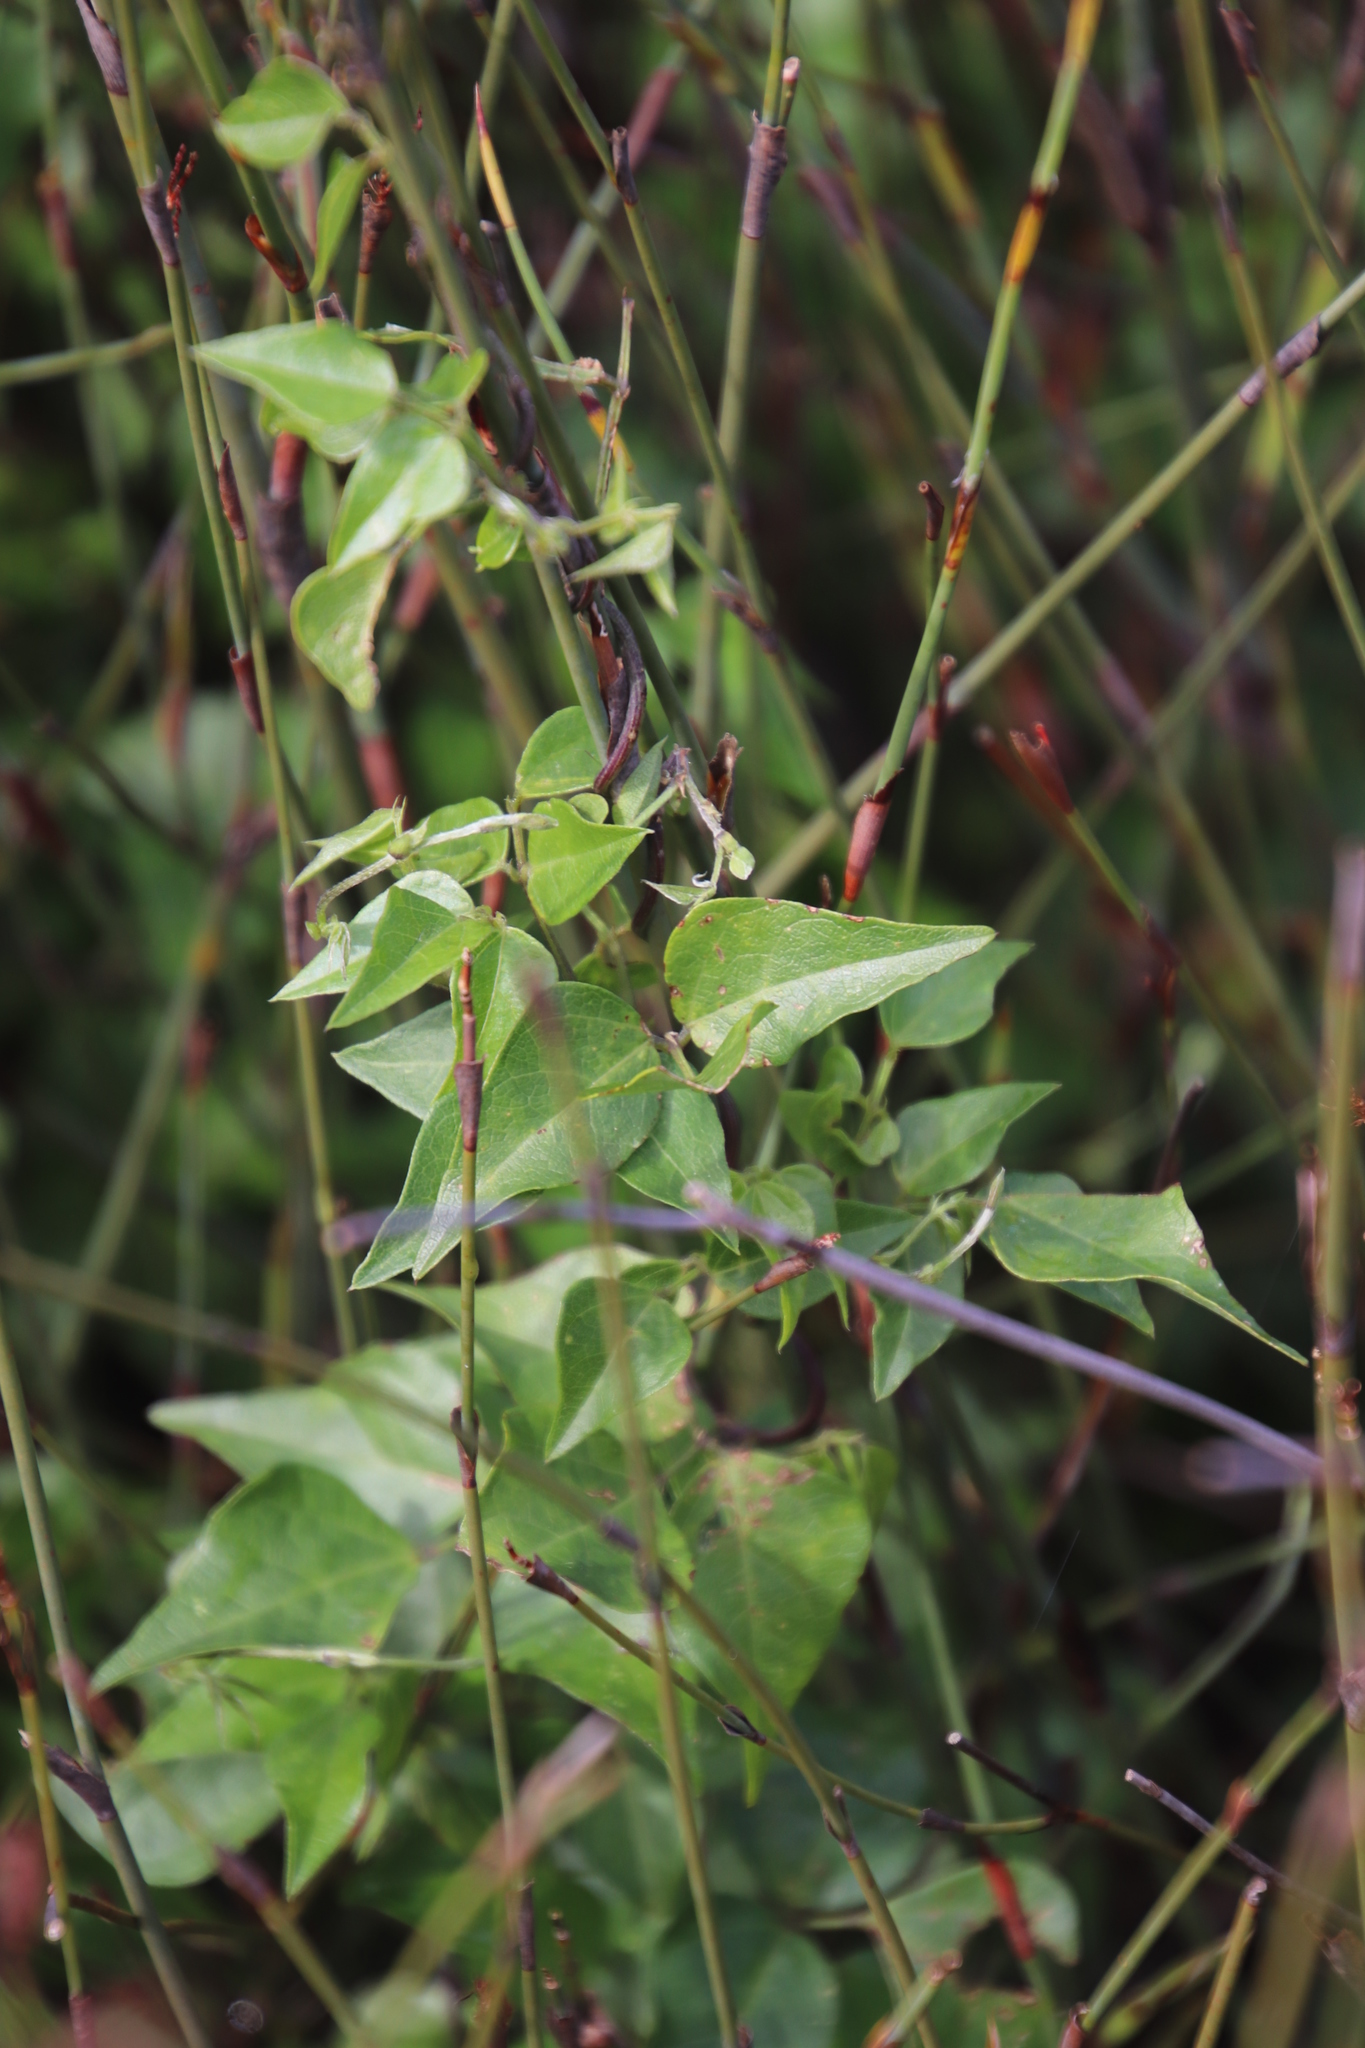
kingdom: Plantae
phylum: Tracheophyta
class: Magnoliopsida
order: Fabales
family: Fabaceae
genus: Dipogon
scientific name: Dipogon lignosus
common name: Okie bean
